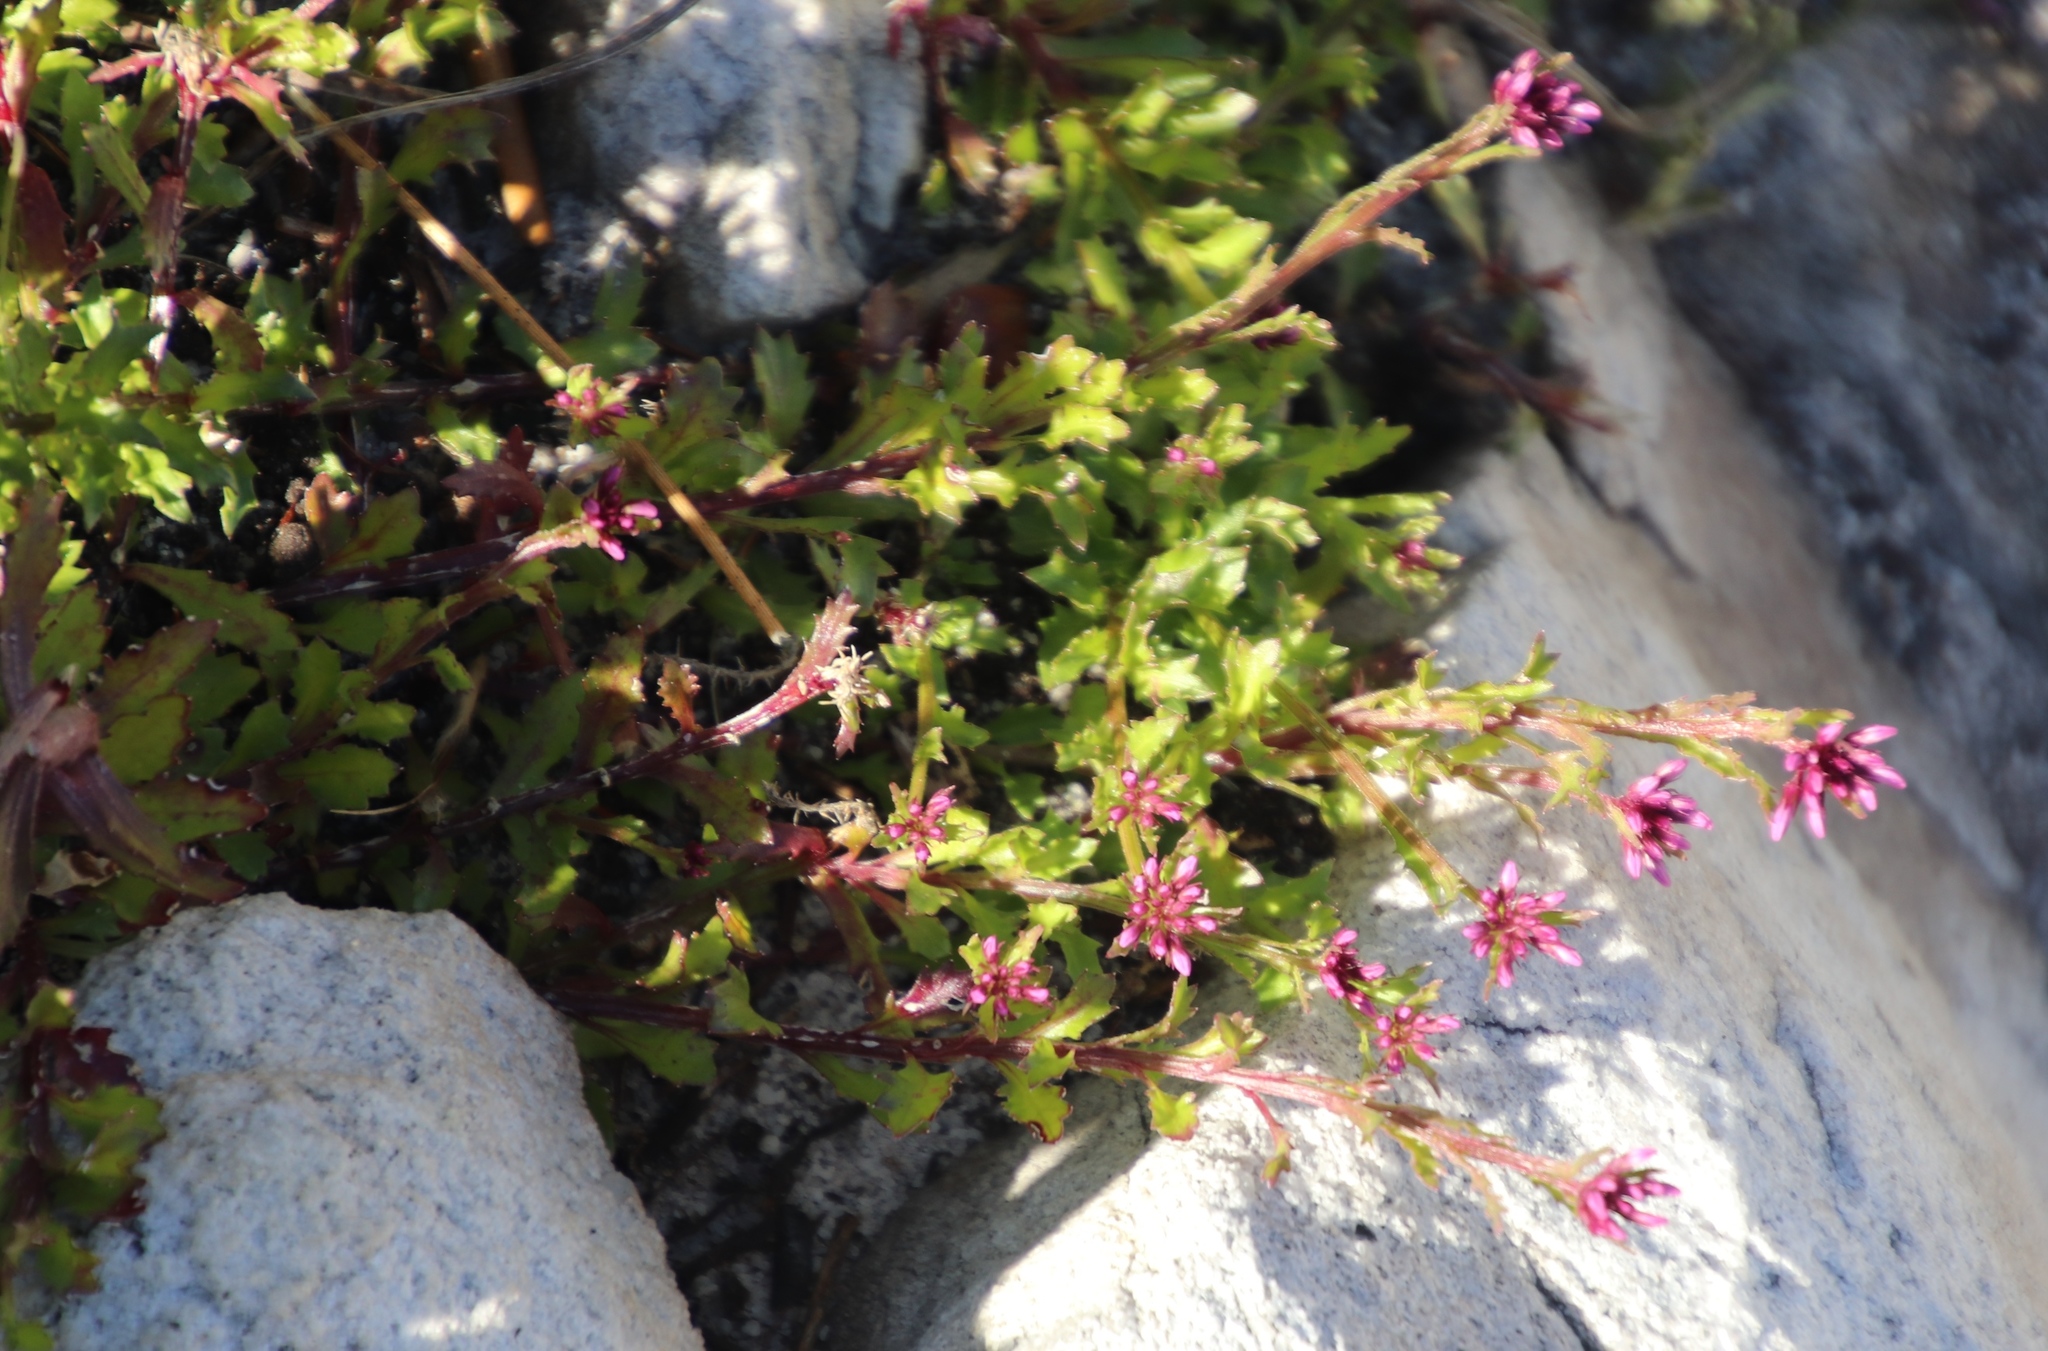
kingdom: Plantae
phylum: Tracheophyta
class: Magnoliopsida
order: Asterales
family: Campanulaceae
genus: Lobelia
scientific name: Lobelia jasionoides
